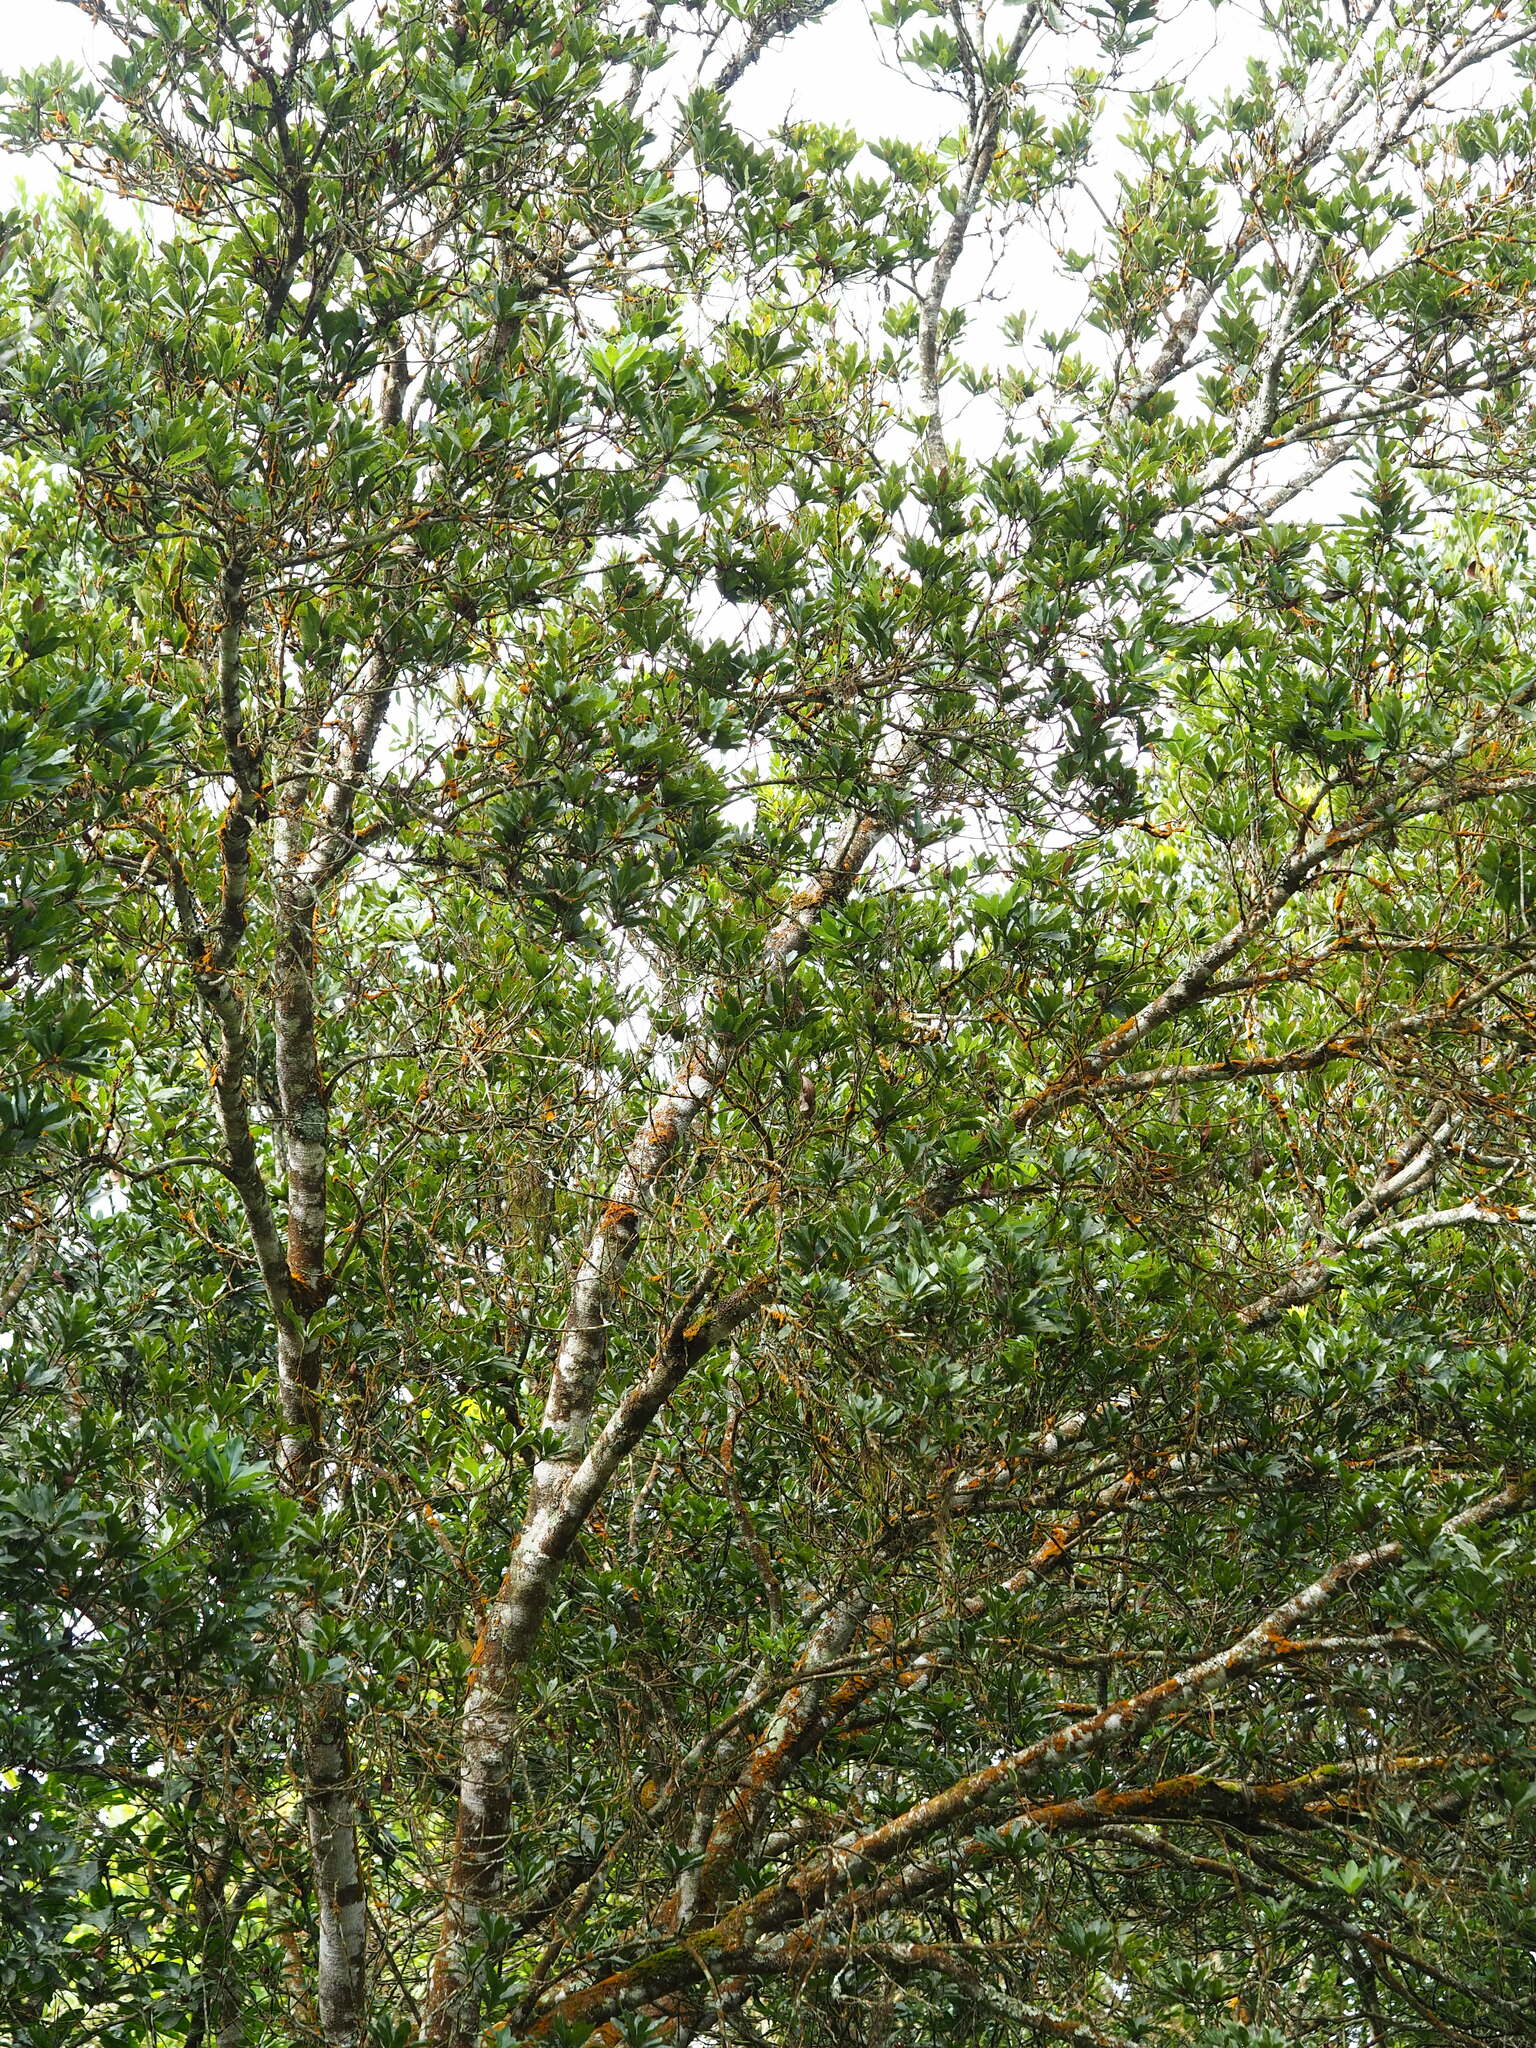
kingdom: Plantae
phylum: Tracheophyta
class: Magnoliopsida
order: Fagales
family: Myricaceae
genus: Morella
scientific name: Morella rubra
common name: Red bayberry
